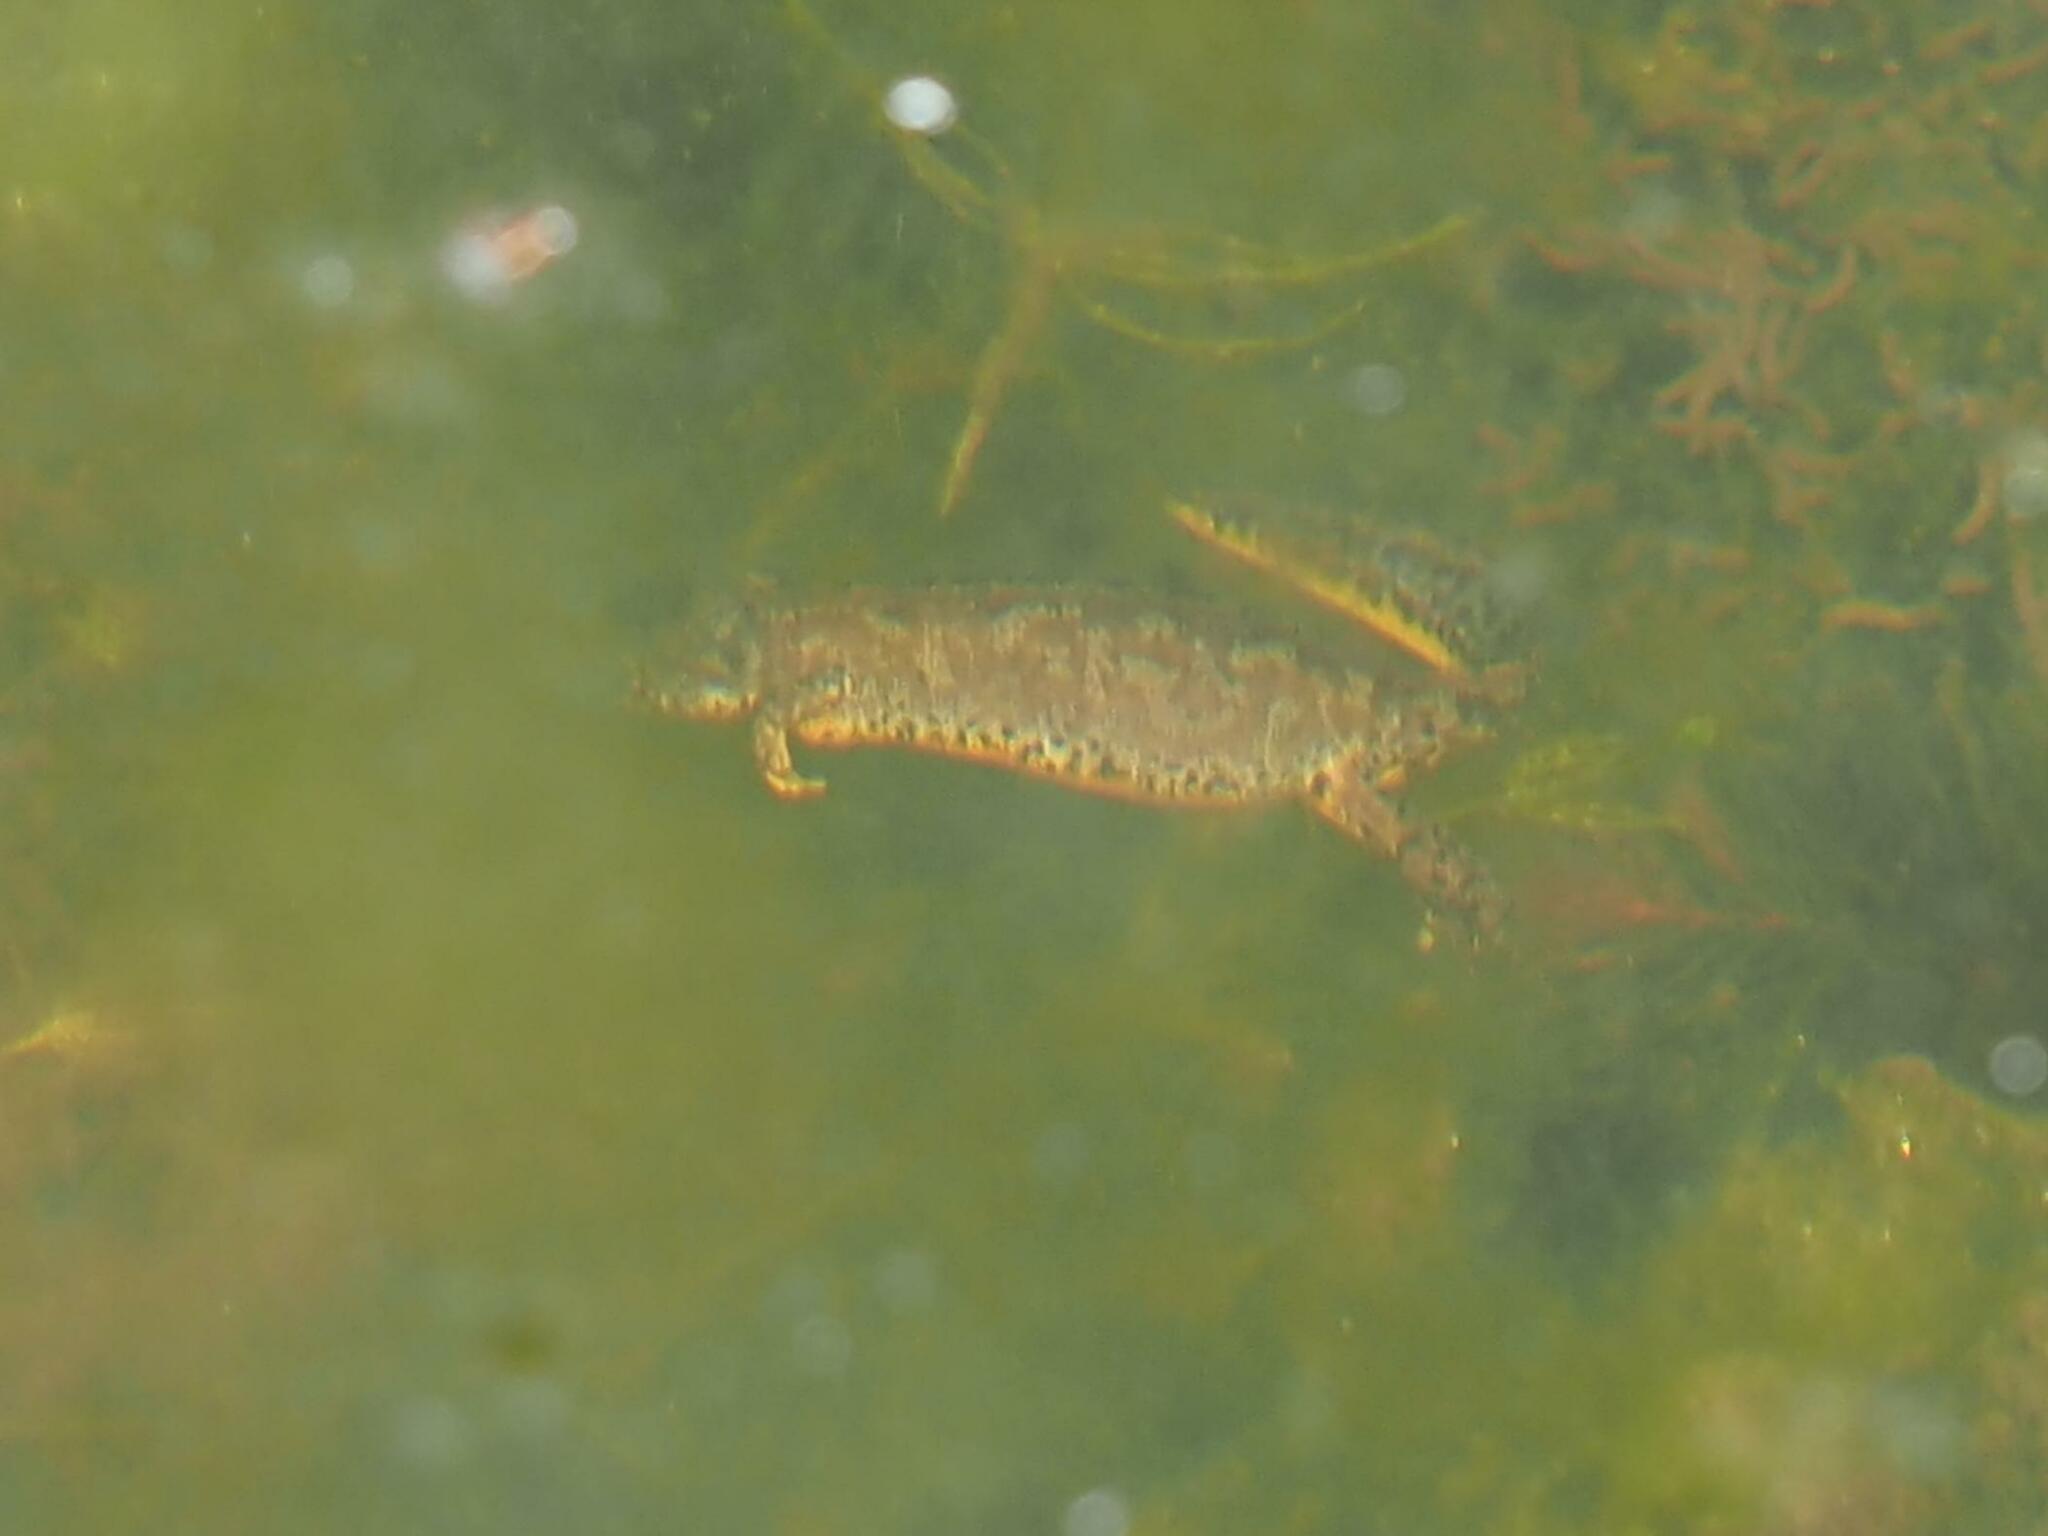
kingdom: Animalia
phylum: Chordata
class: Amphibia
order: Caudata
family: Salamandridae
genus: Ichthyosaura
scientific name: Ichthyosaura alpestris
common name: Alpine newt
